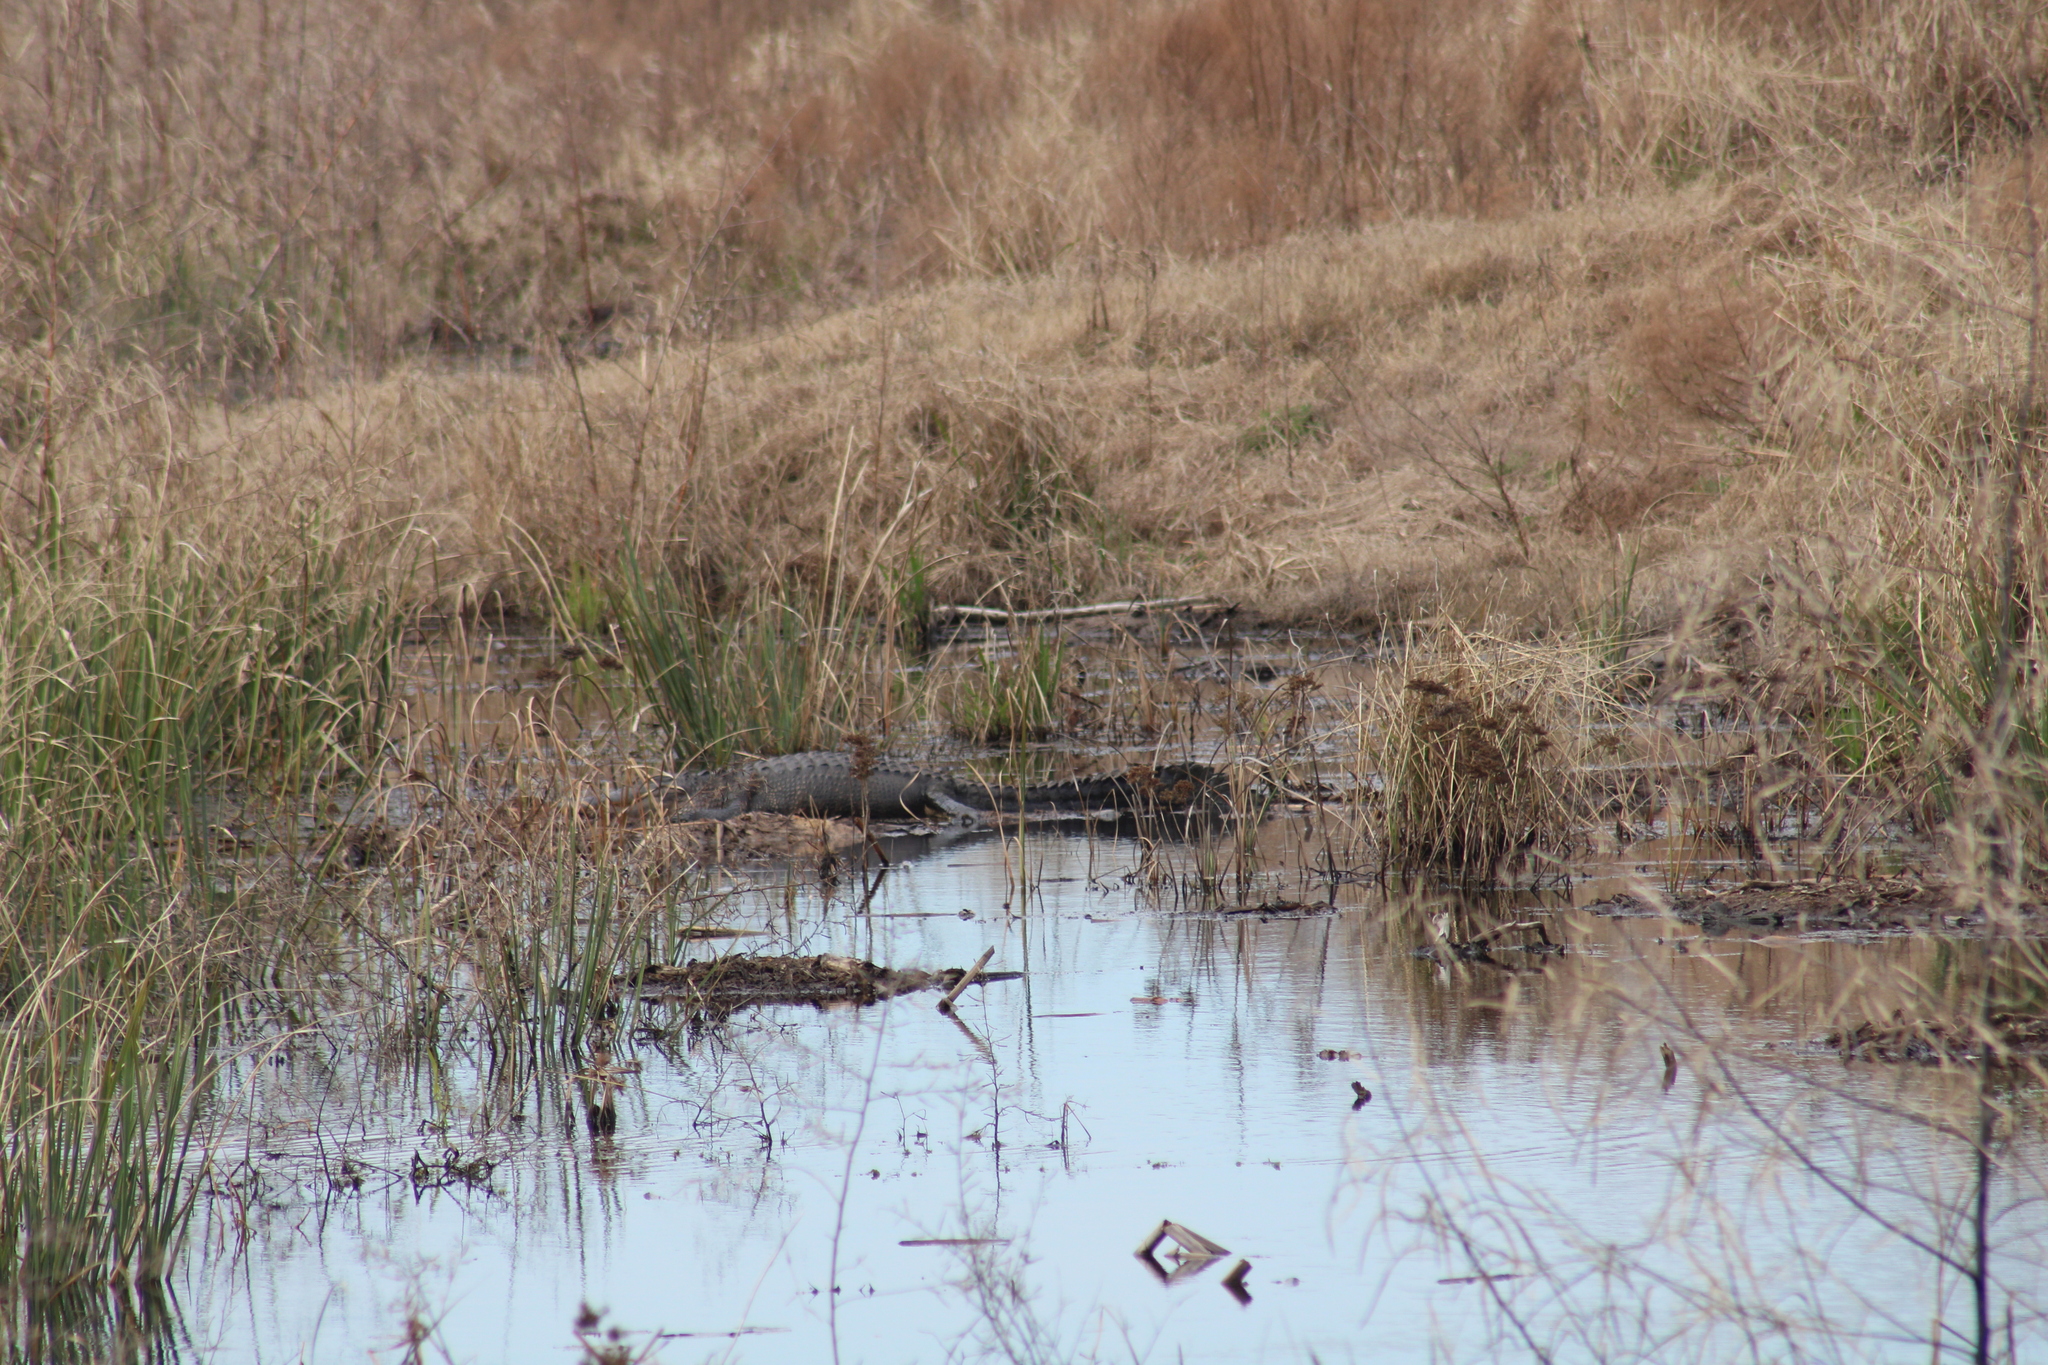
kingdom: Animalia
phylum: Chordata
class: Crocodylia
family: Alligatoridae
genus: Alligator
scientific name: Alligator mississippiensis
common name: American alligator
